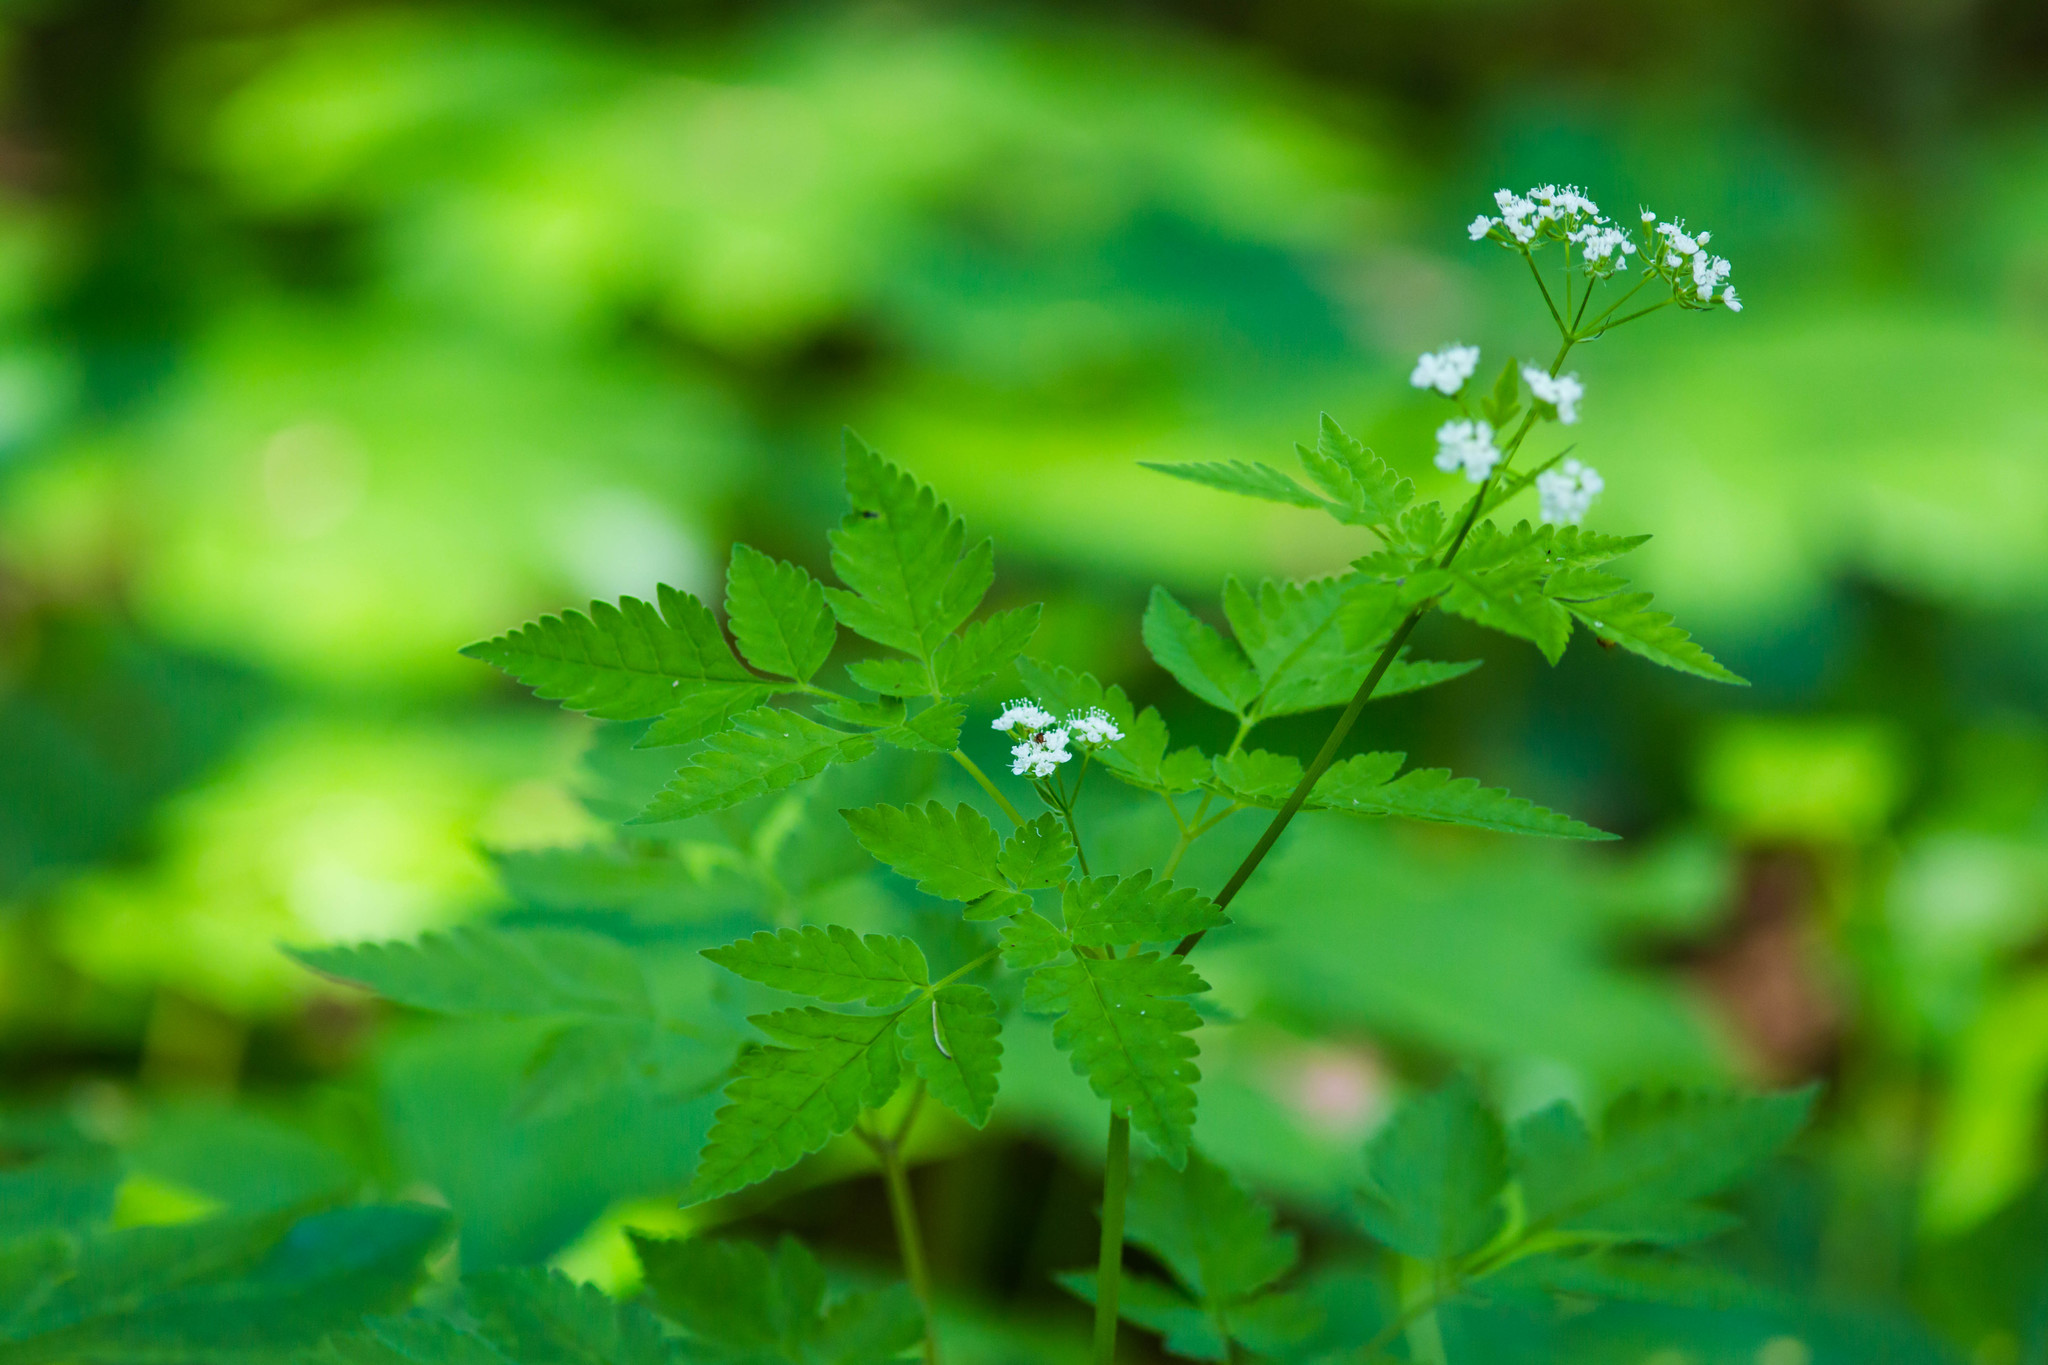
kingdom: Plantae
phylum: Tracheophyta
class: Magnoliopsida
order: Apiales
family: Apiaceae
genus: Osmorhiza
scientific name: Osmorhiza longistylis
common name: Smooth sweet cicely
